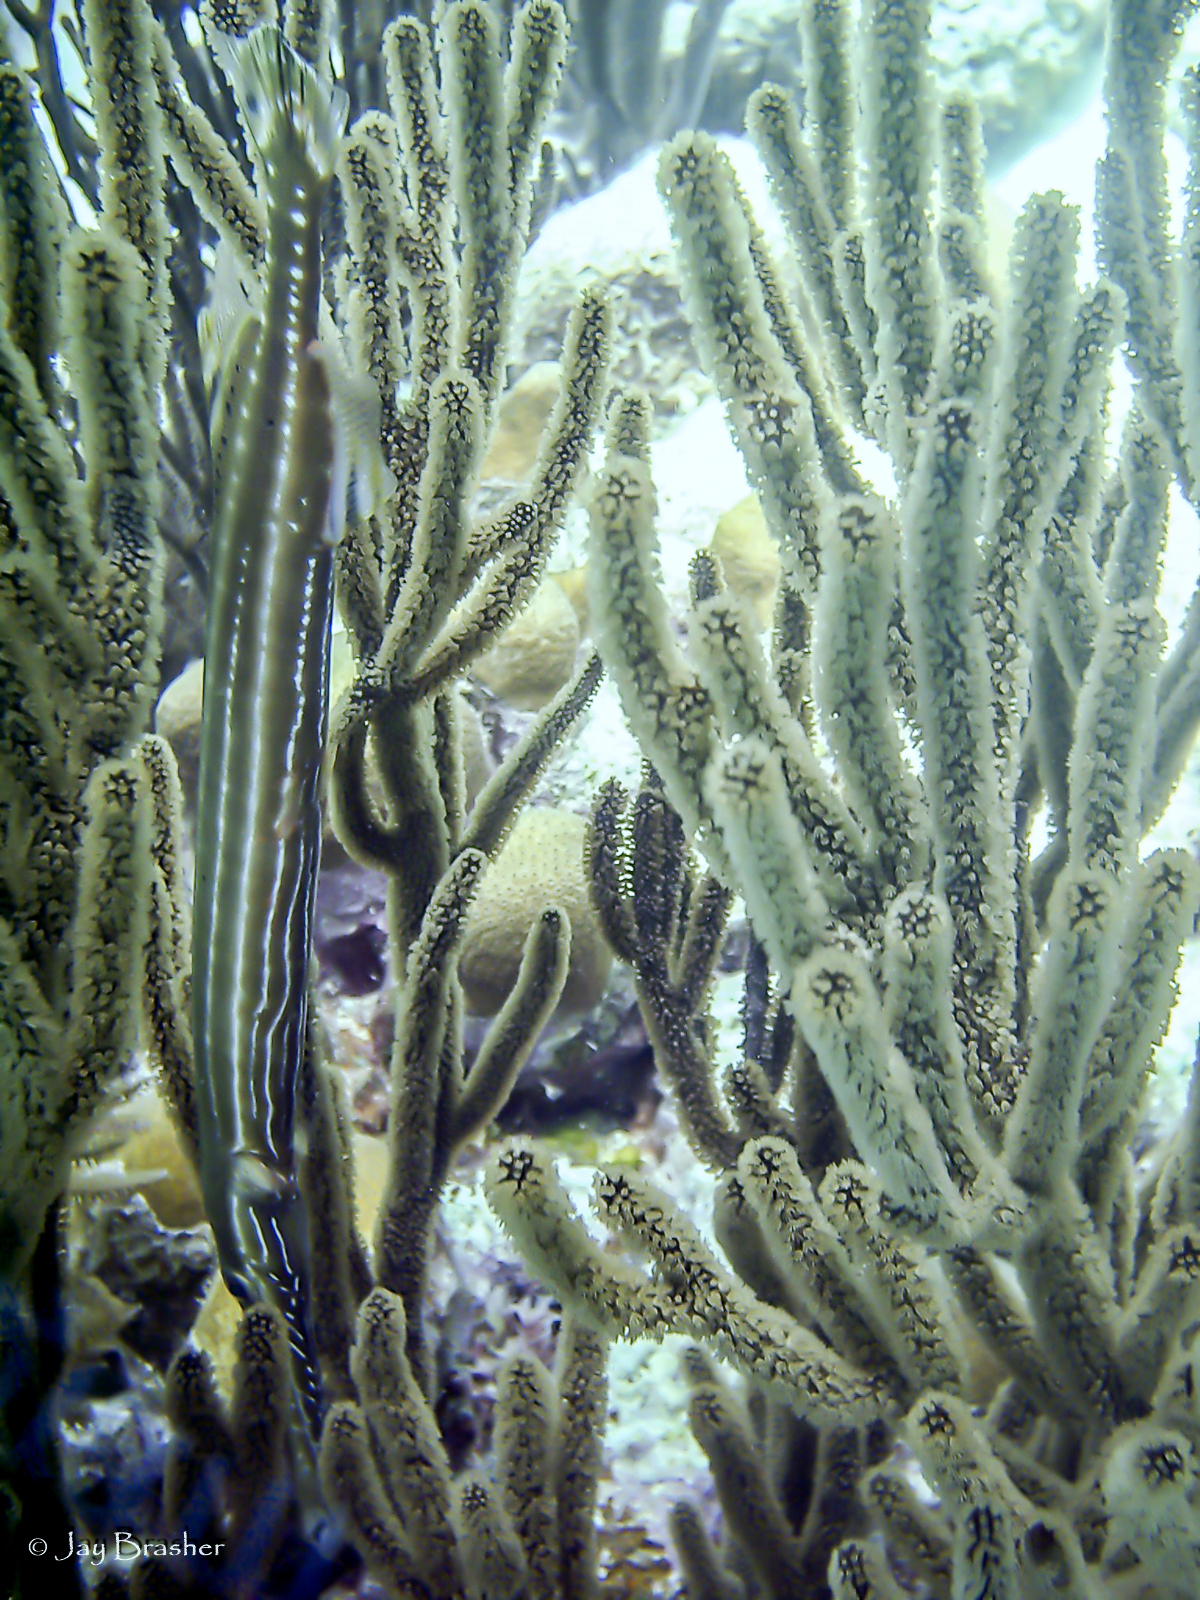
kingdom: Animalia
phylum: Chordata
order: Syngnathiformes
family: Aulostomidae
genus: Aulostomus
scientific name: Aulostomus maculatus
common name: West atlantic trumpetfish
